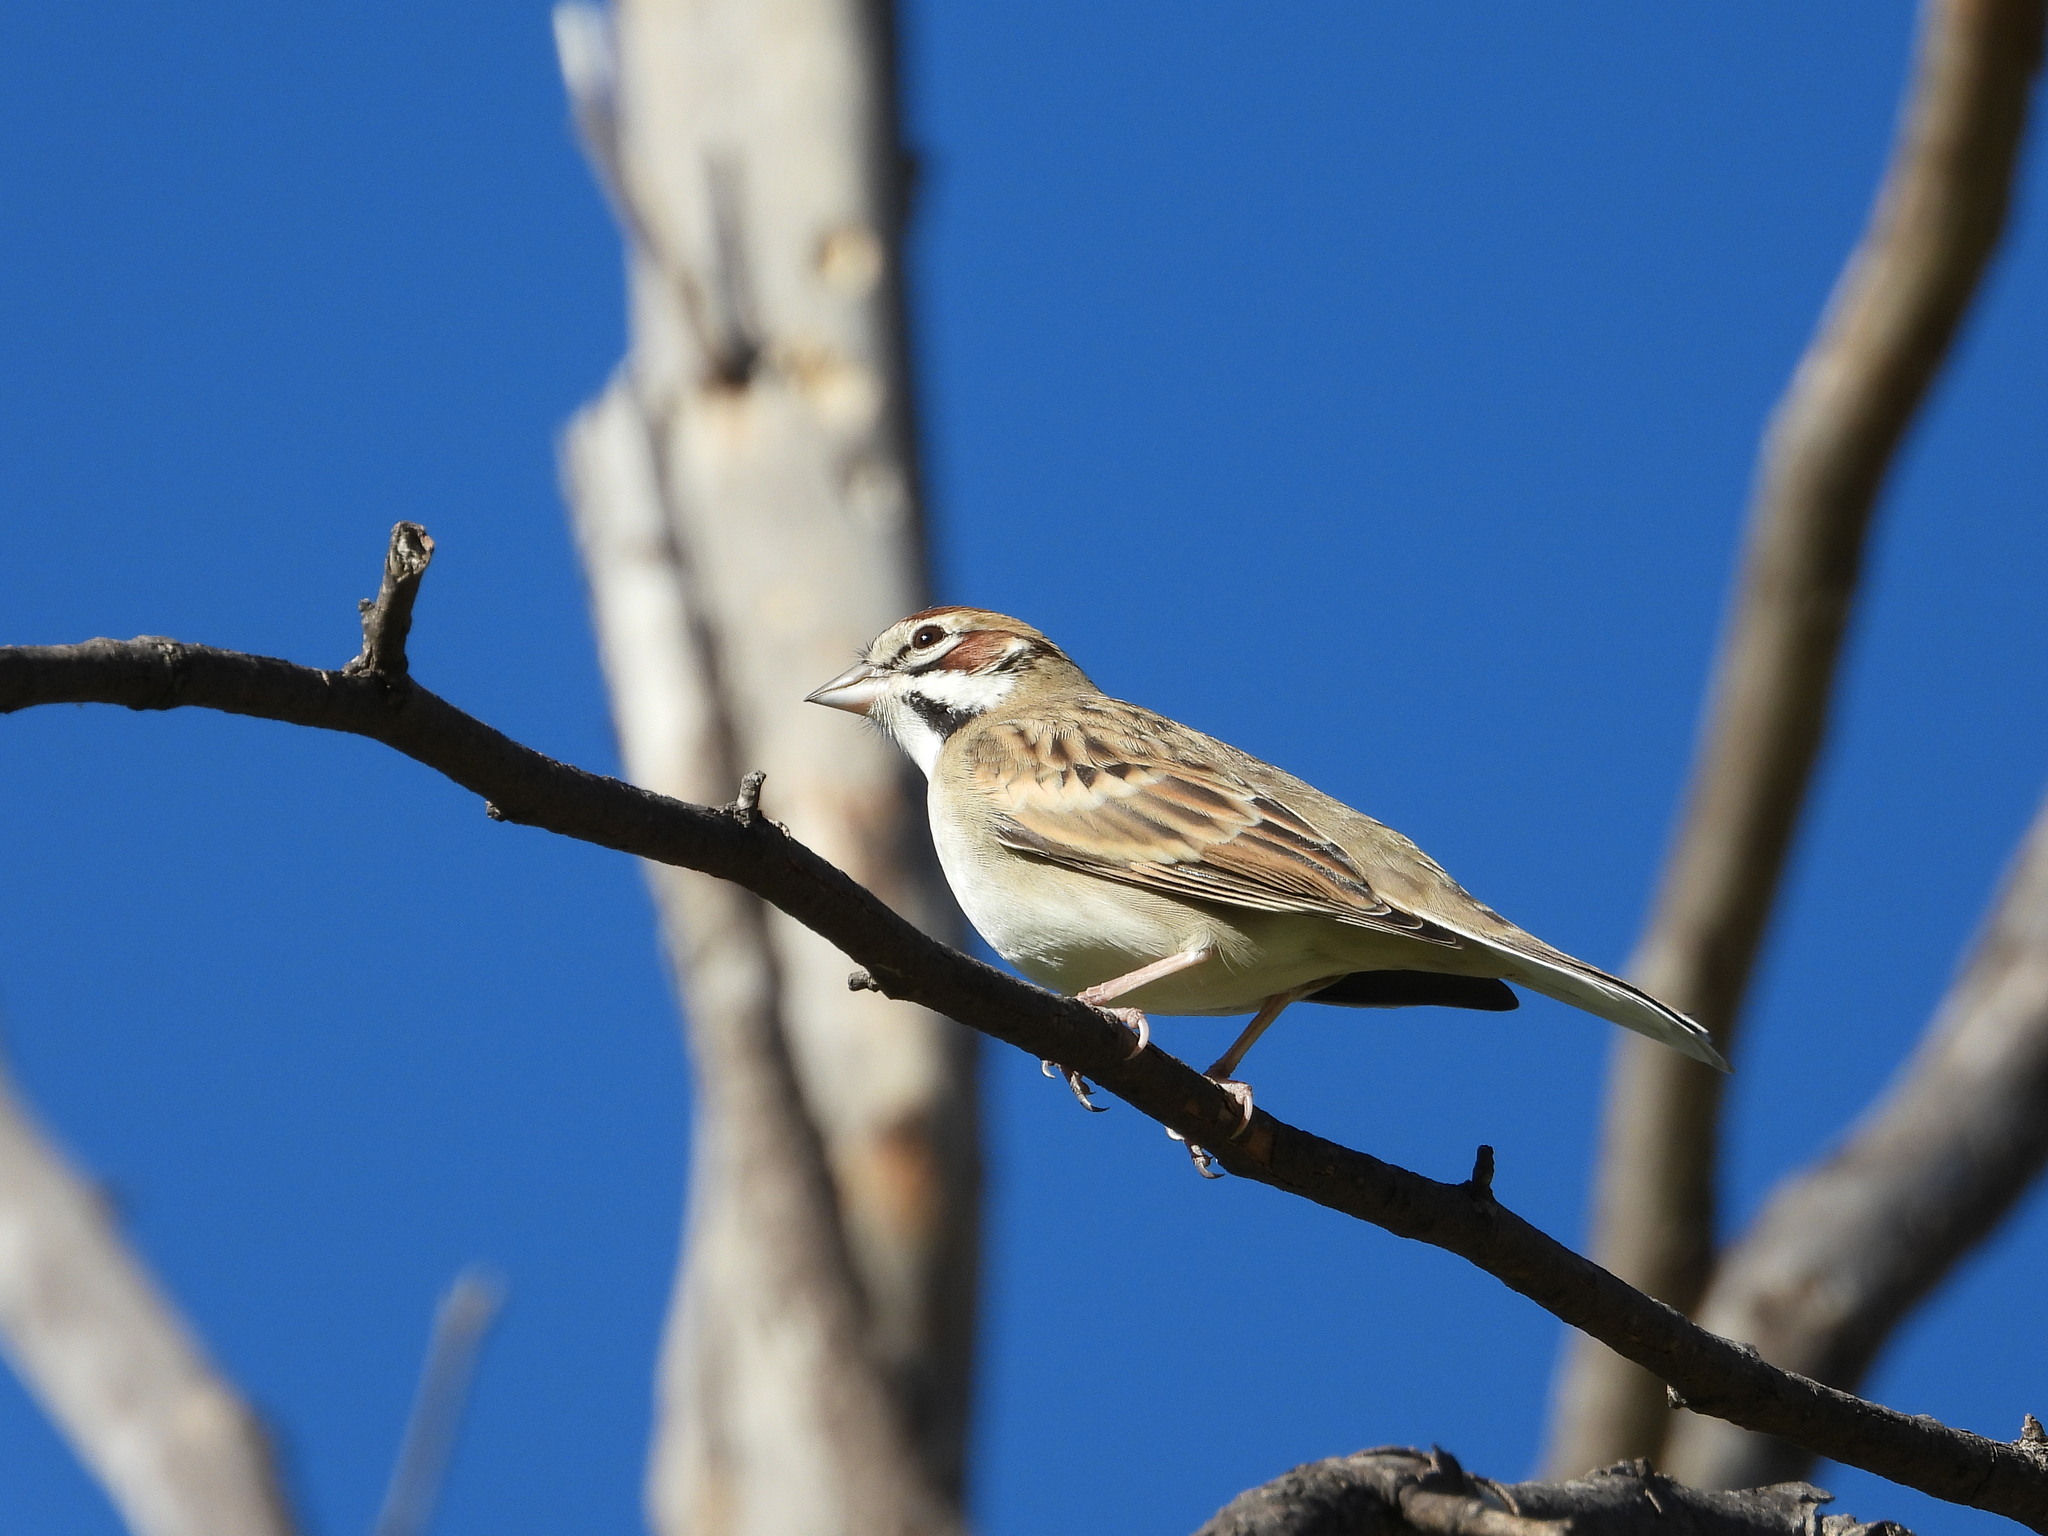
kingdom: Animalia
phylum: Chordata
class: Aves
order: Passeriformes
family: Passerellidae
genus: Chondestes
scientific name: Chondestes grammacus
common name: Lark sparrow
